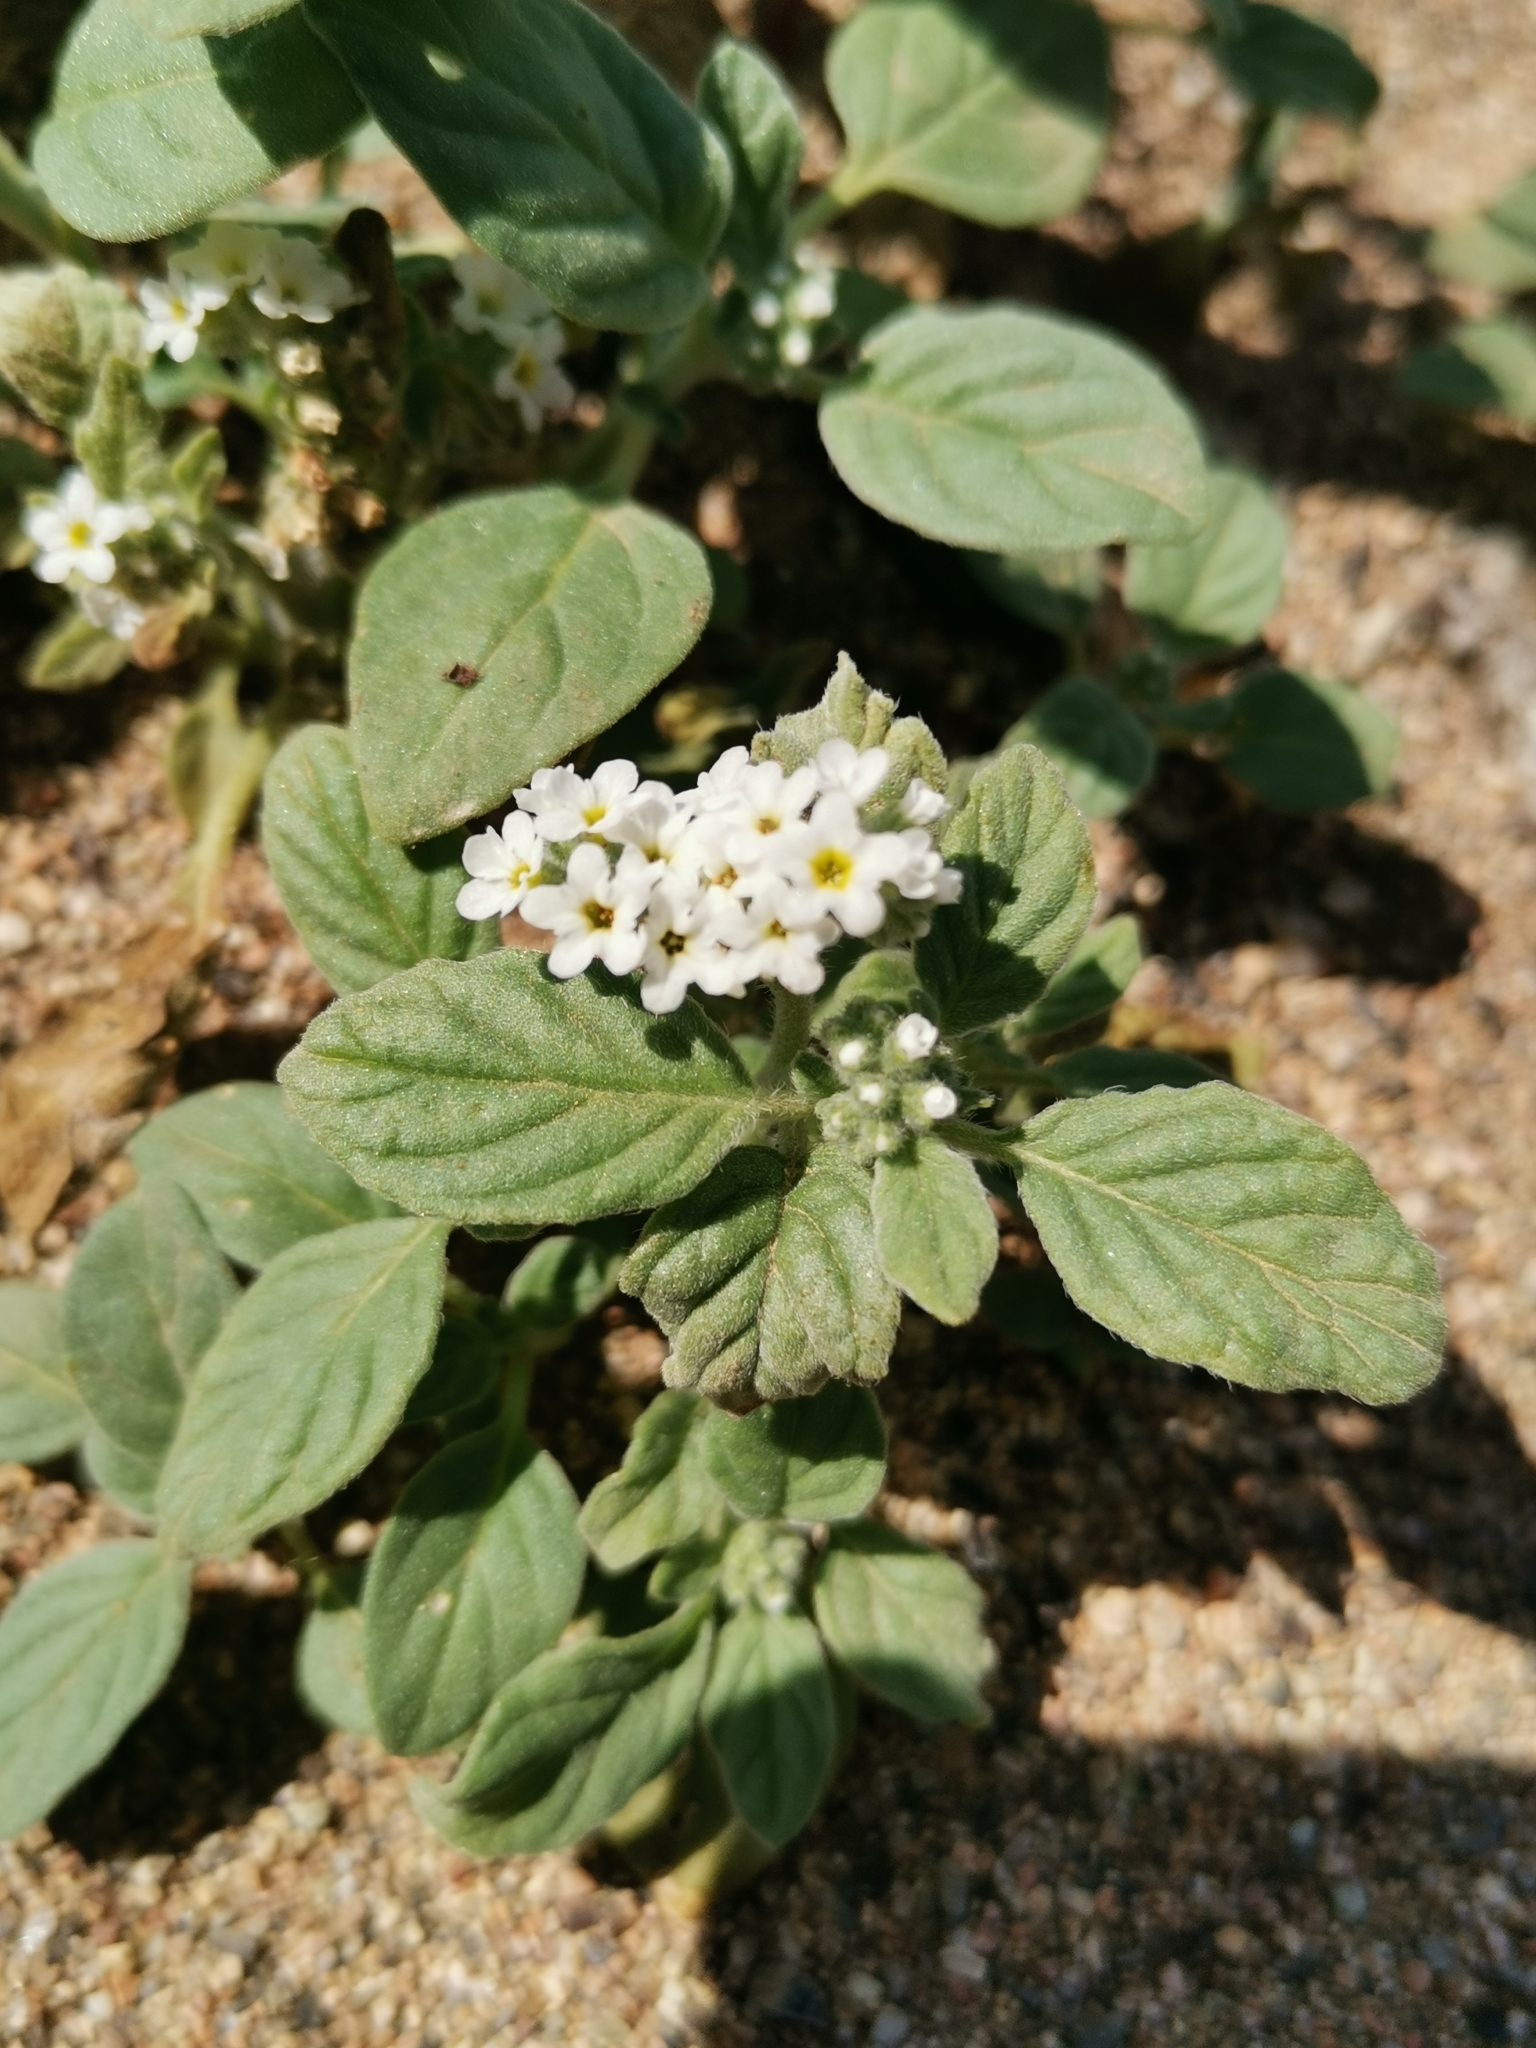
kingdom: Plantae
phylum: Tracheophyta
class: Magnoliopsida
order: Boraginales
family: Heliotropiaceae
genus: Heliotropium
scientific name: Heliotropium europaeum
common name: European heliotrope
